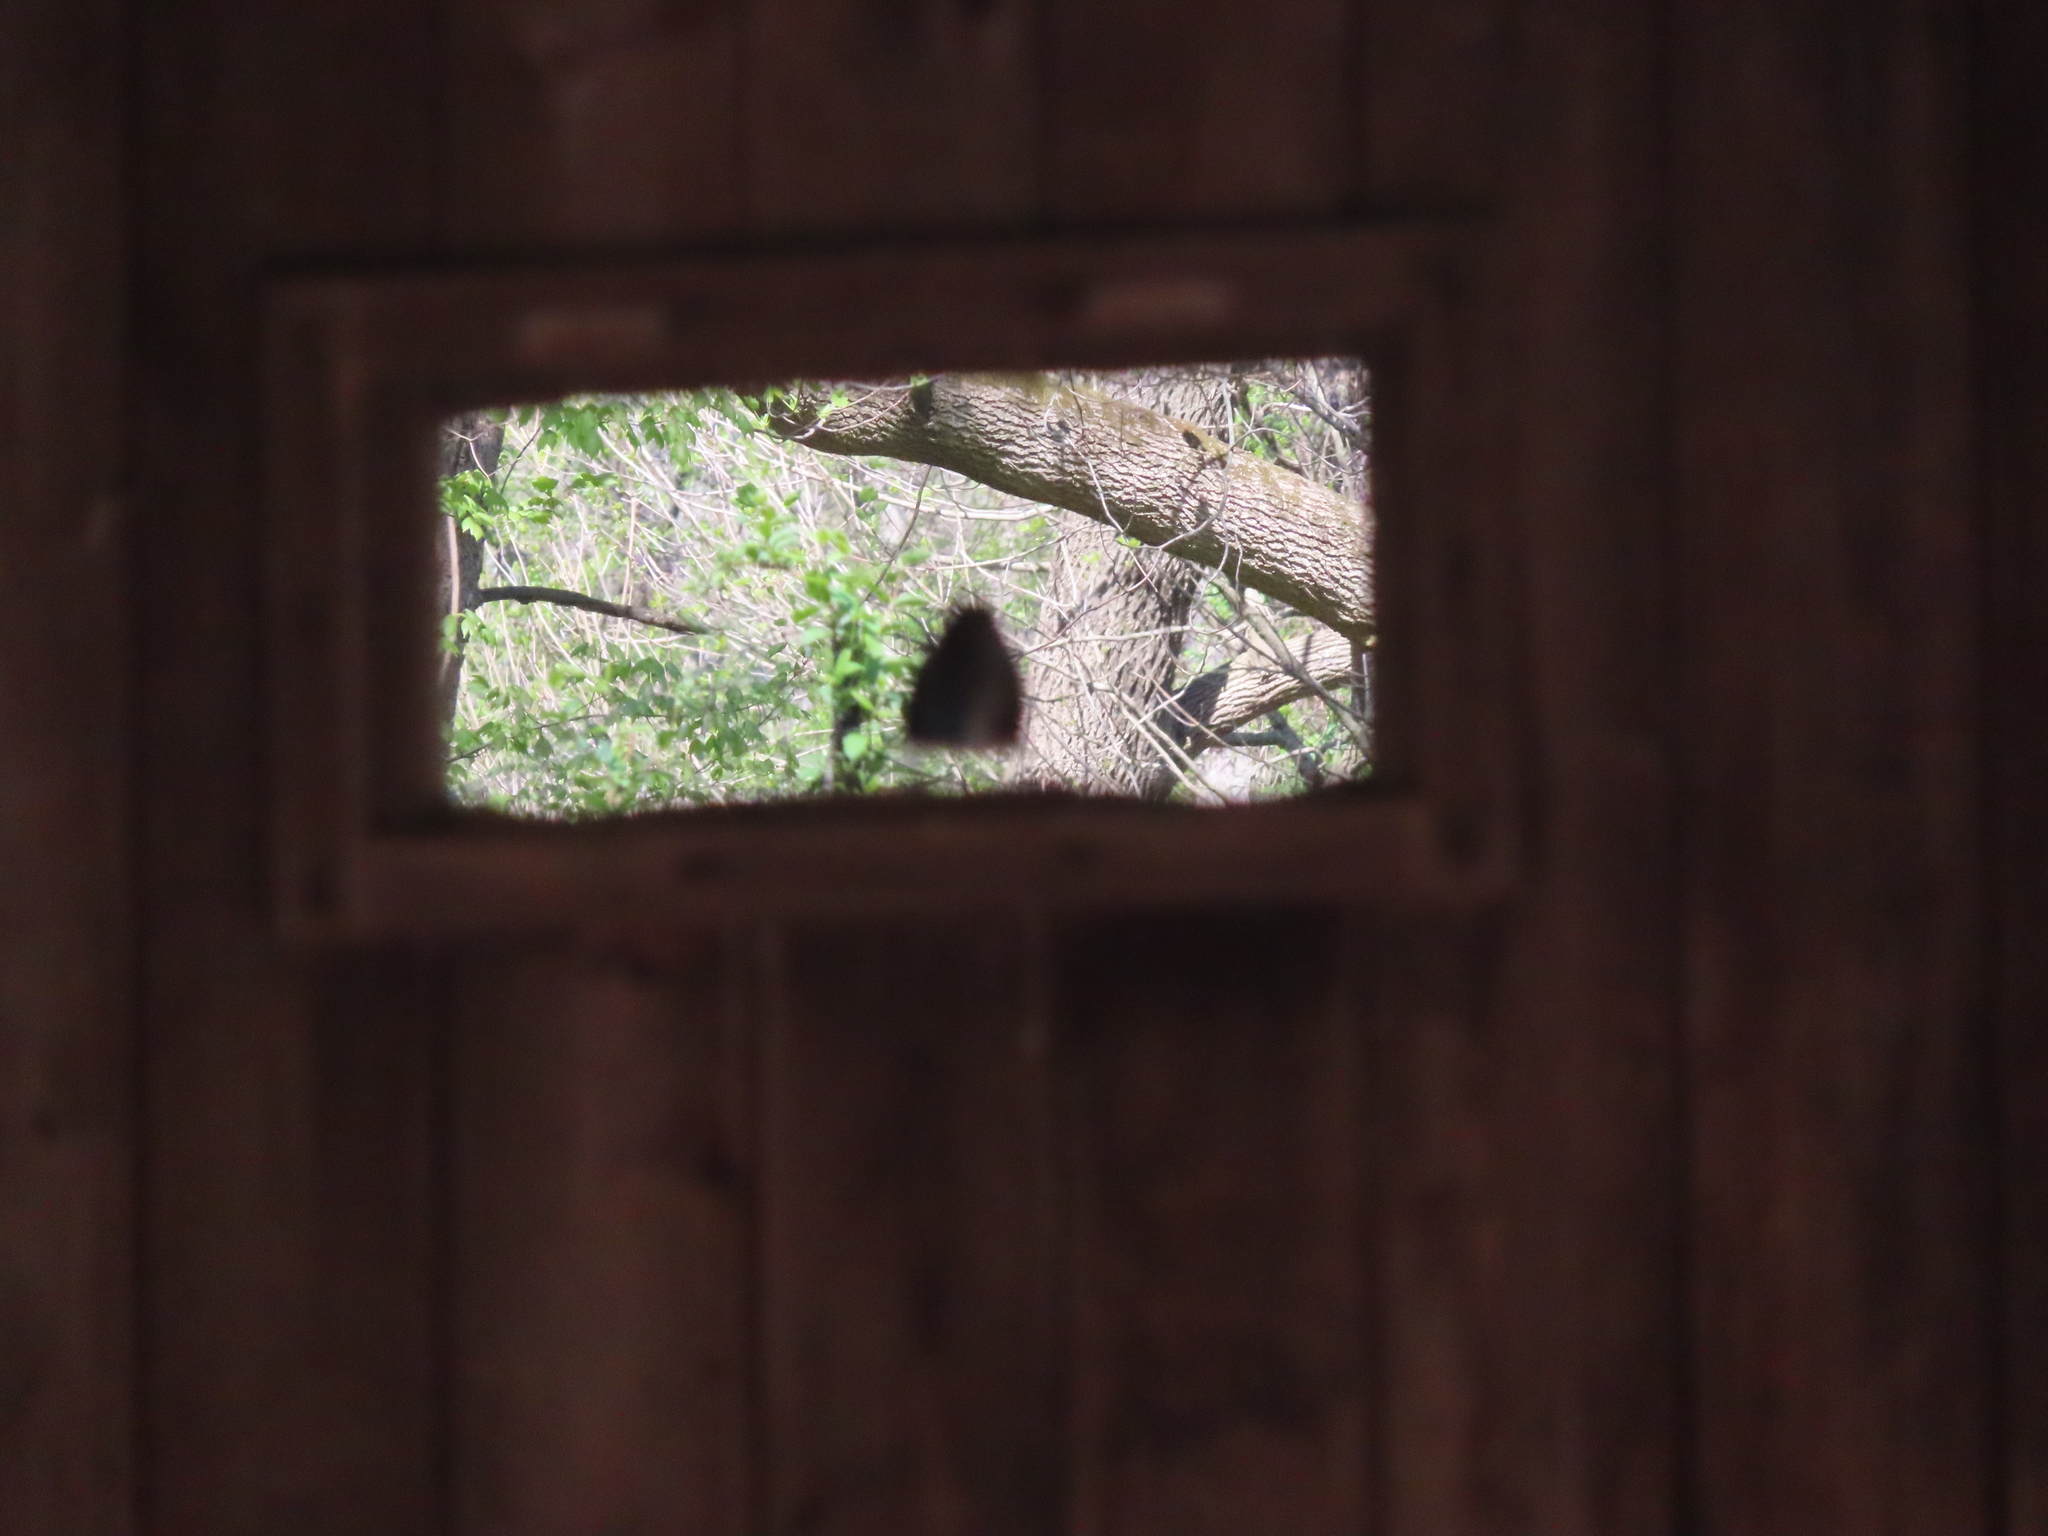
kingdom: Animalia
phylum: Chordata
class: Aves
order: Passeriformes
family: Passerellidae
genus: Zonotrichia
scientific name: Zonotrichia albicollis
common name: White-throated sparrow
